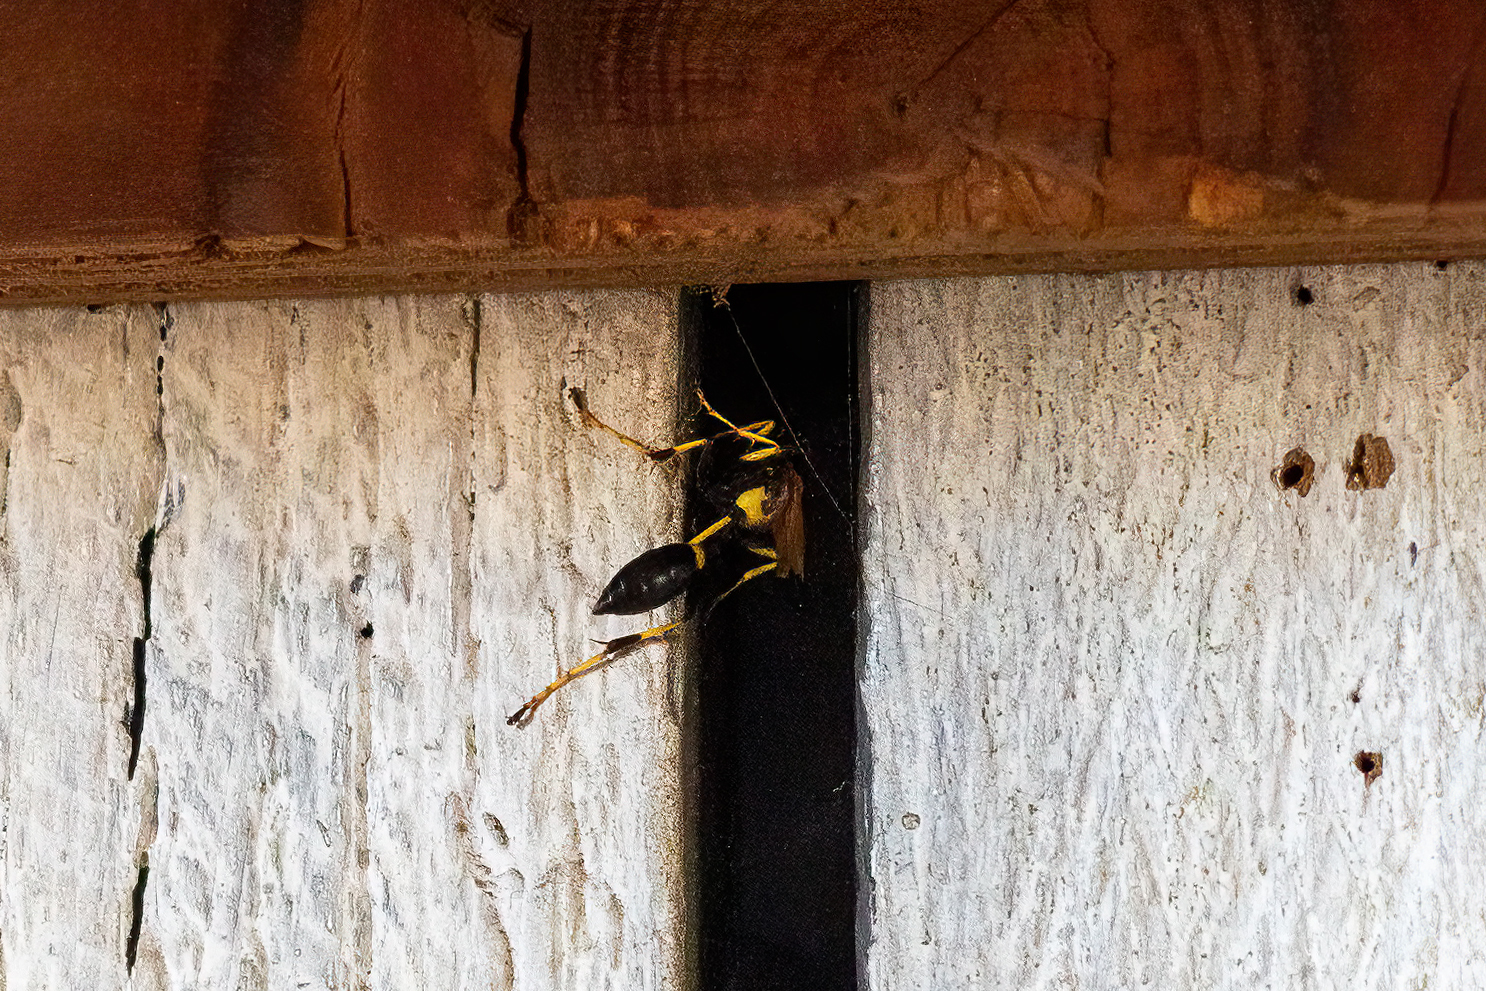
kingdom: Animalia
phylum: Arthropoda
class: Insecta
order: Hymenoptera
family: Sphecidae
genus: Sceliphron
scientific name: Sceliphron caementarium
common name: Mud dauber
